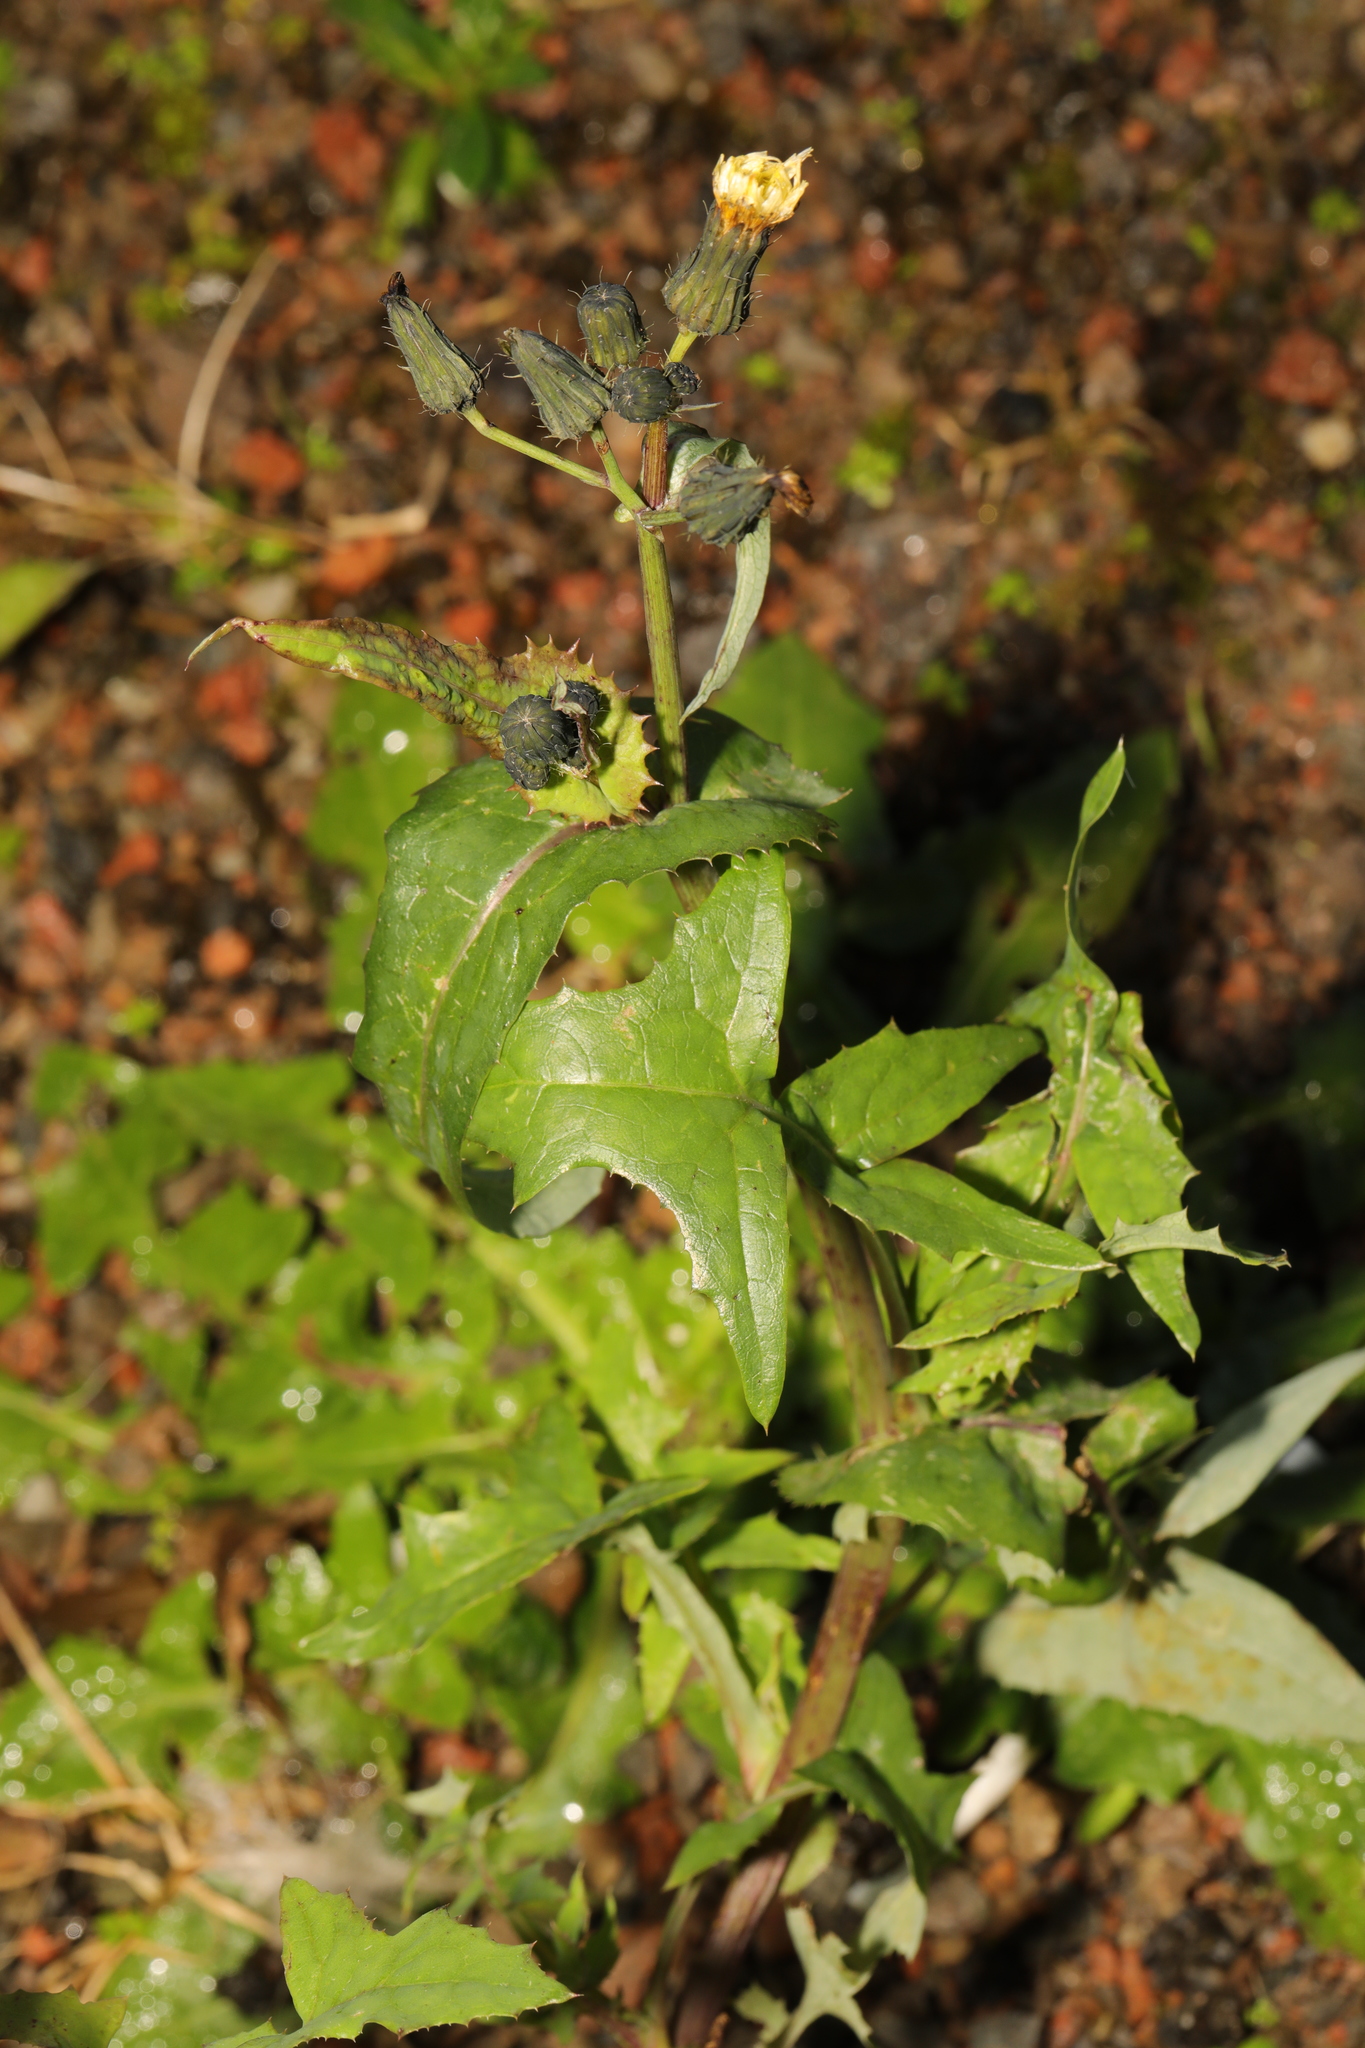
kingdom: Plantae
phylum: Tracheophyta
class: Magnoliopsida
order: Asterales
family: Asteraceae
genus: Sonchus
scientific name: Sonchus oleraceus
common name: Common sowthistle
